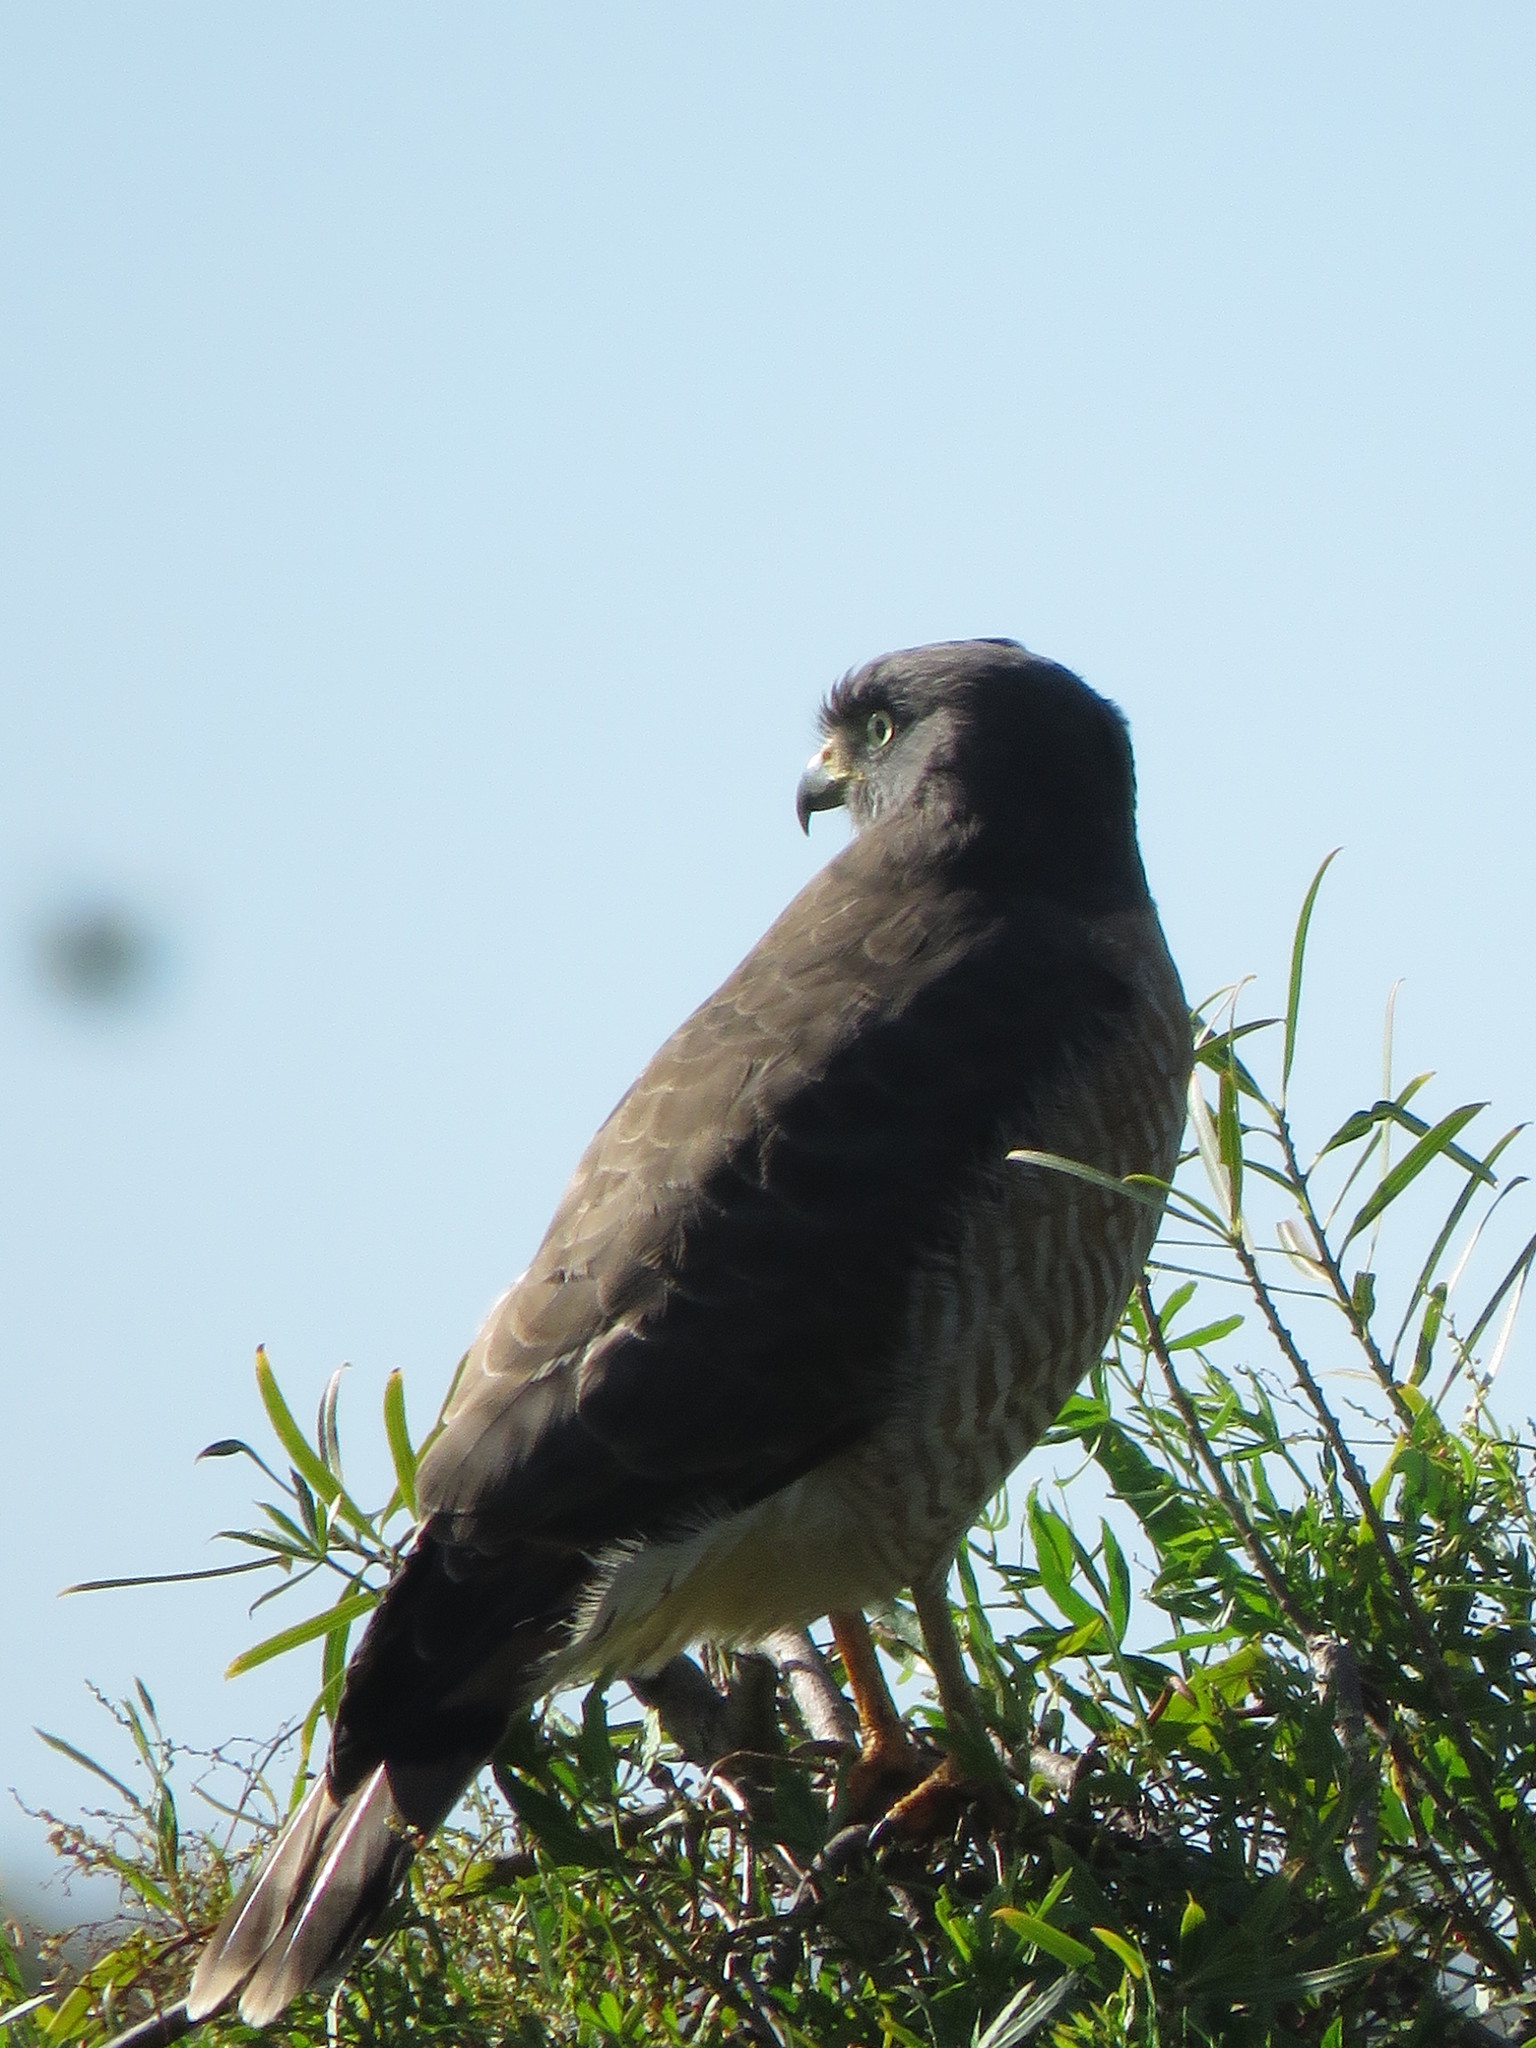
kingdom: Animalia
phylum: Chordata
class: Aves
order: Accipitriformes
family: Accipitridae
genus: Rupornis
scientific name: Rupornis magnirostris
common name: Roadside hawk
